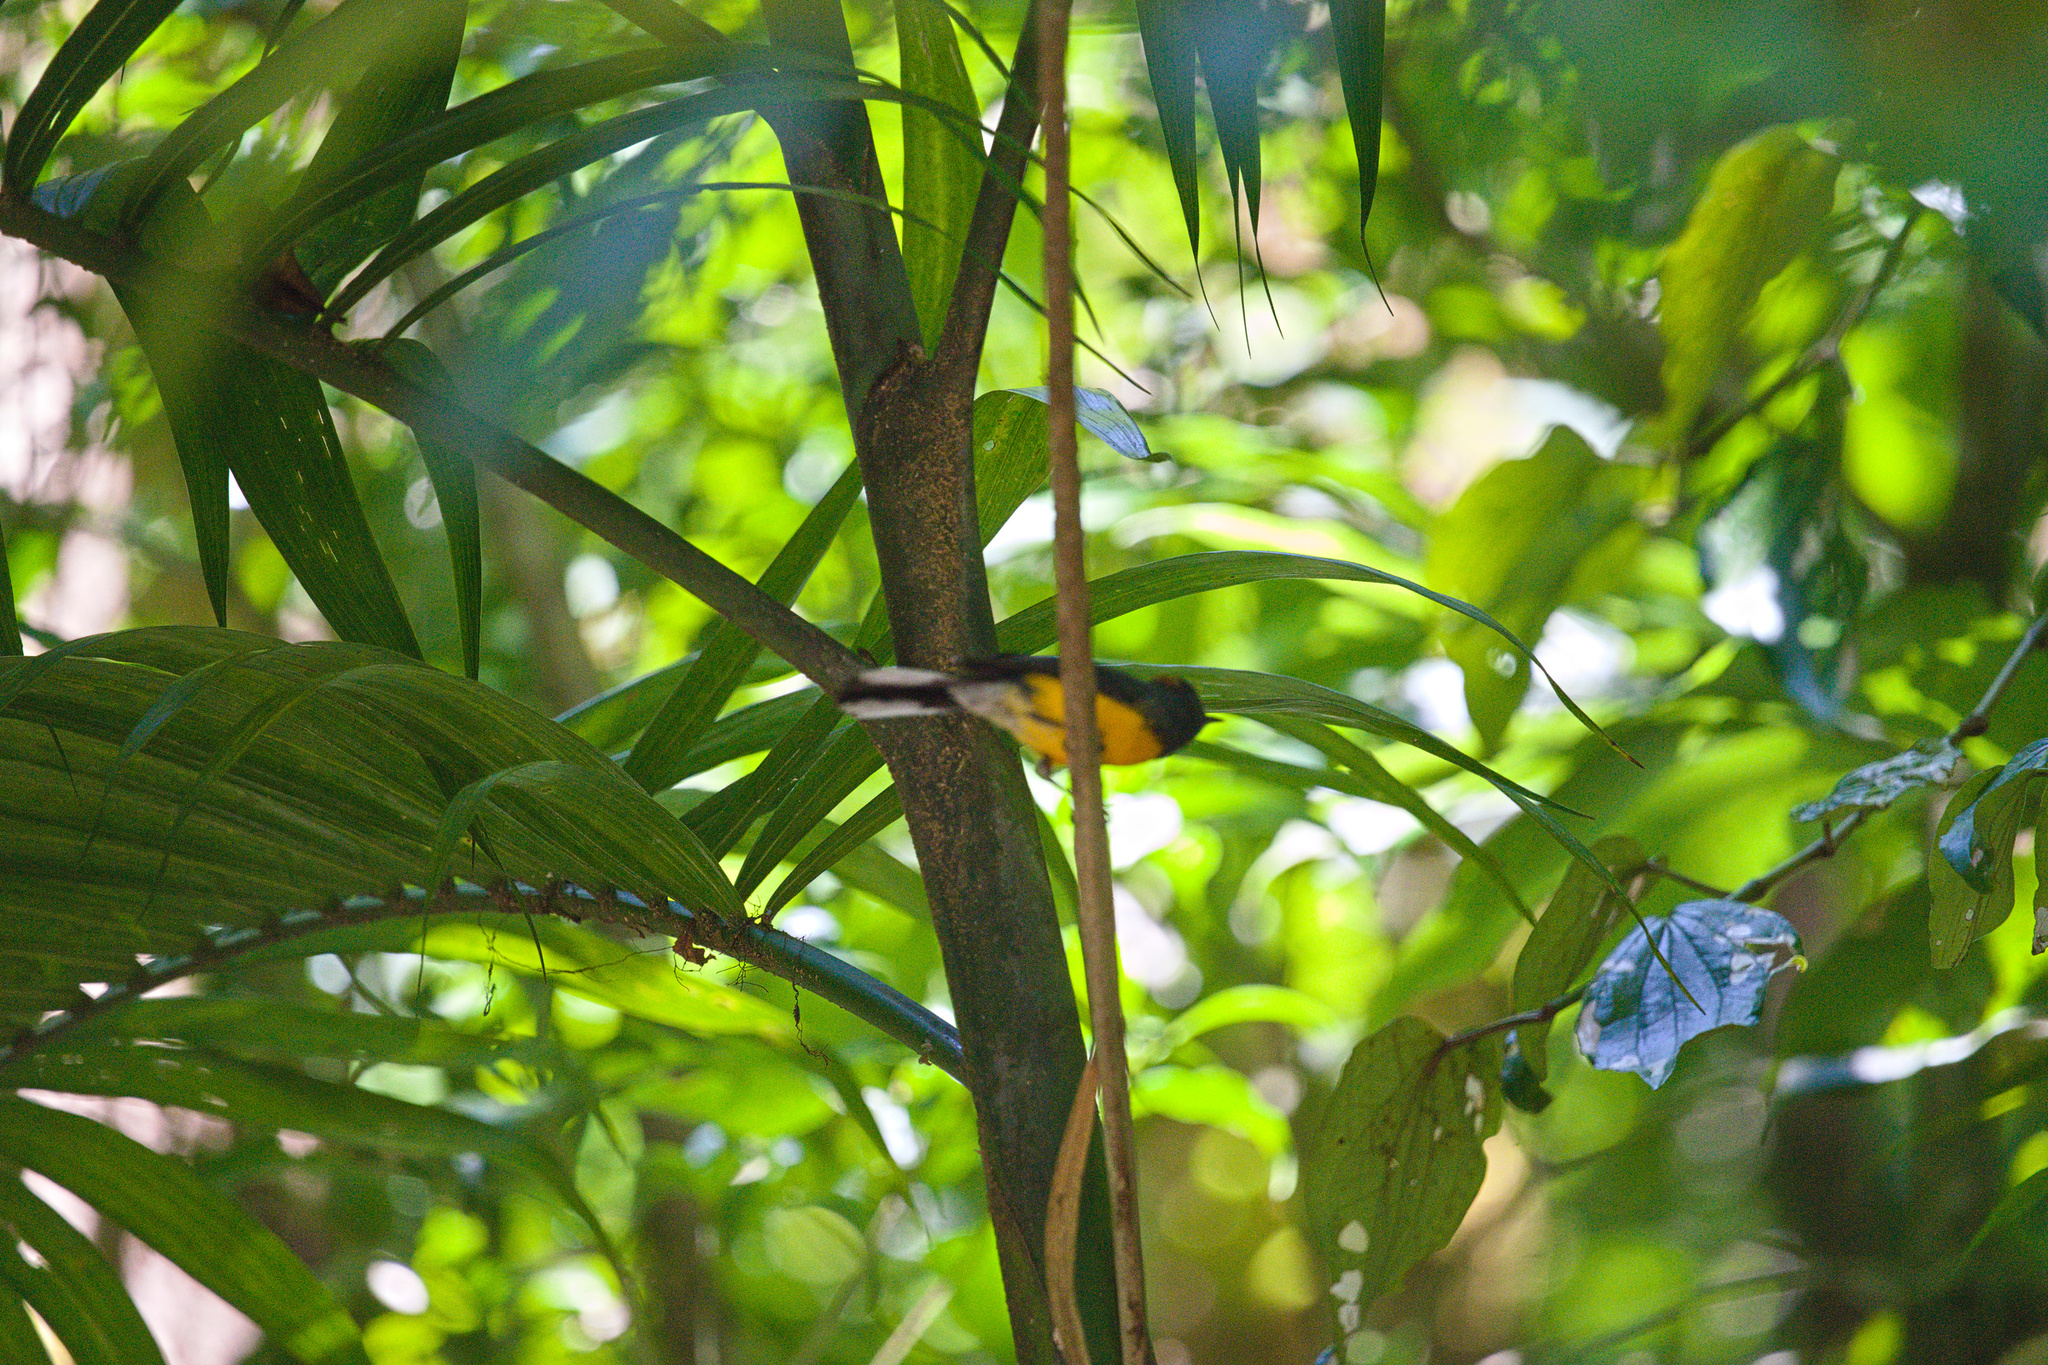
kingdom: Animalia
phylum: Chordata
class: Aves
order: Passeriformes
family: Parulidae
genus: Myioborus
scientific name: Myioborus miniatus
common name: Slate-throated redstart
